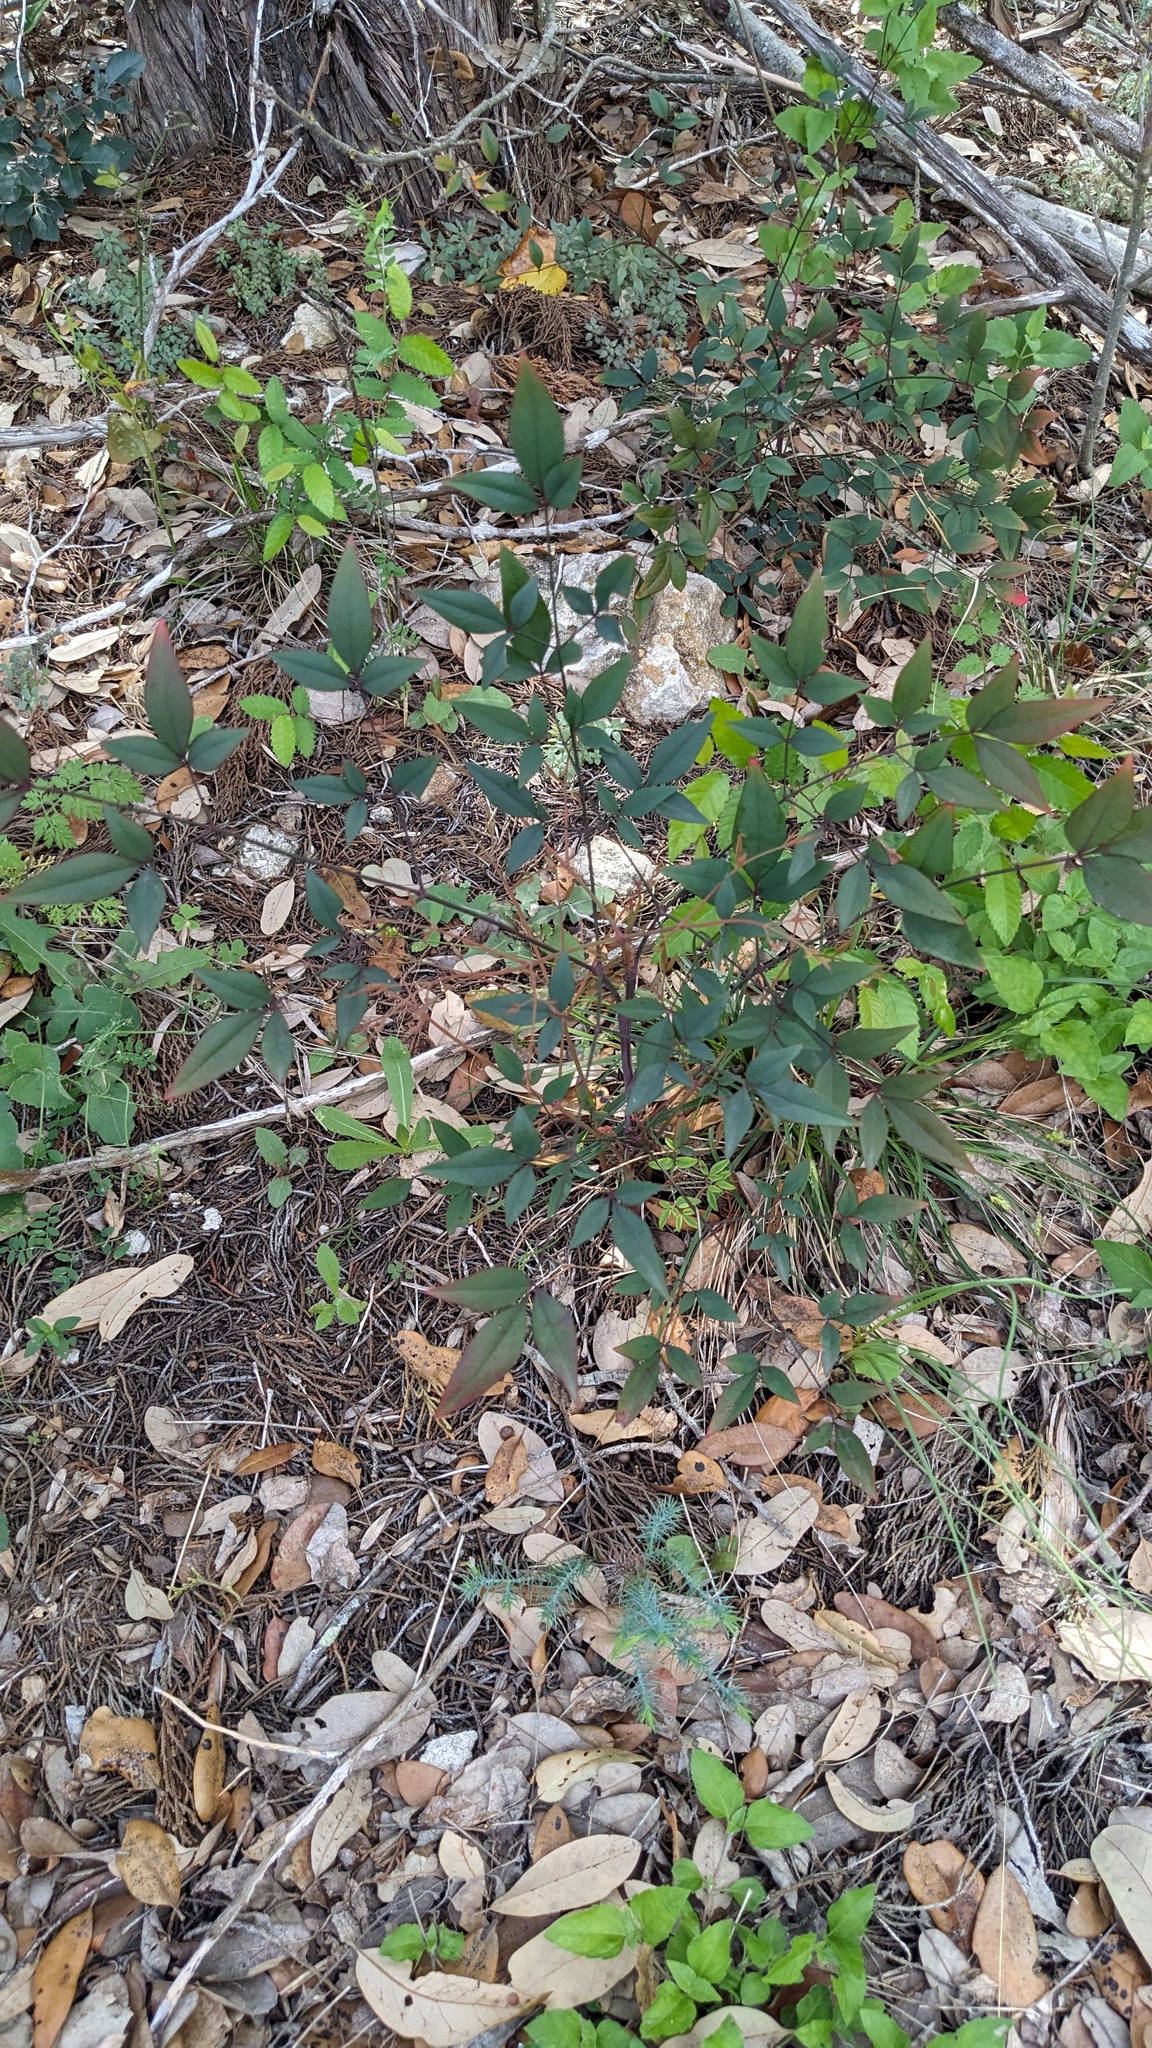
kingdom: Plantae
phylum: Tracheophyta
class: Magnoliopsida
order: Ranunculales
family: Berberidaceae
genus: Nandina
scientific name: Nandina domestica
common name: Sacred bamboo
